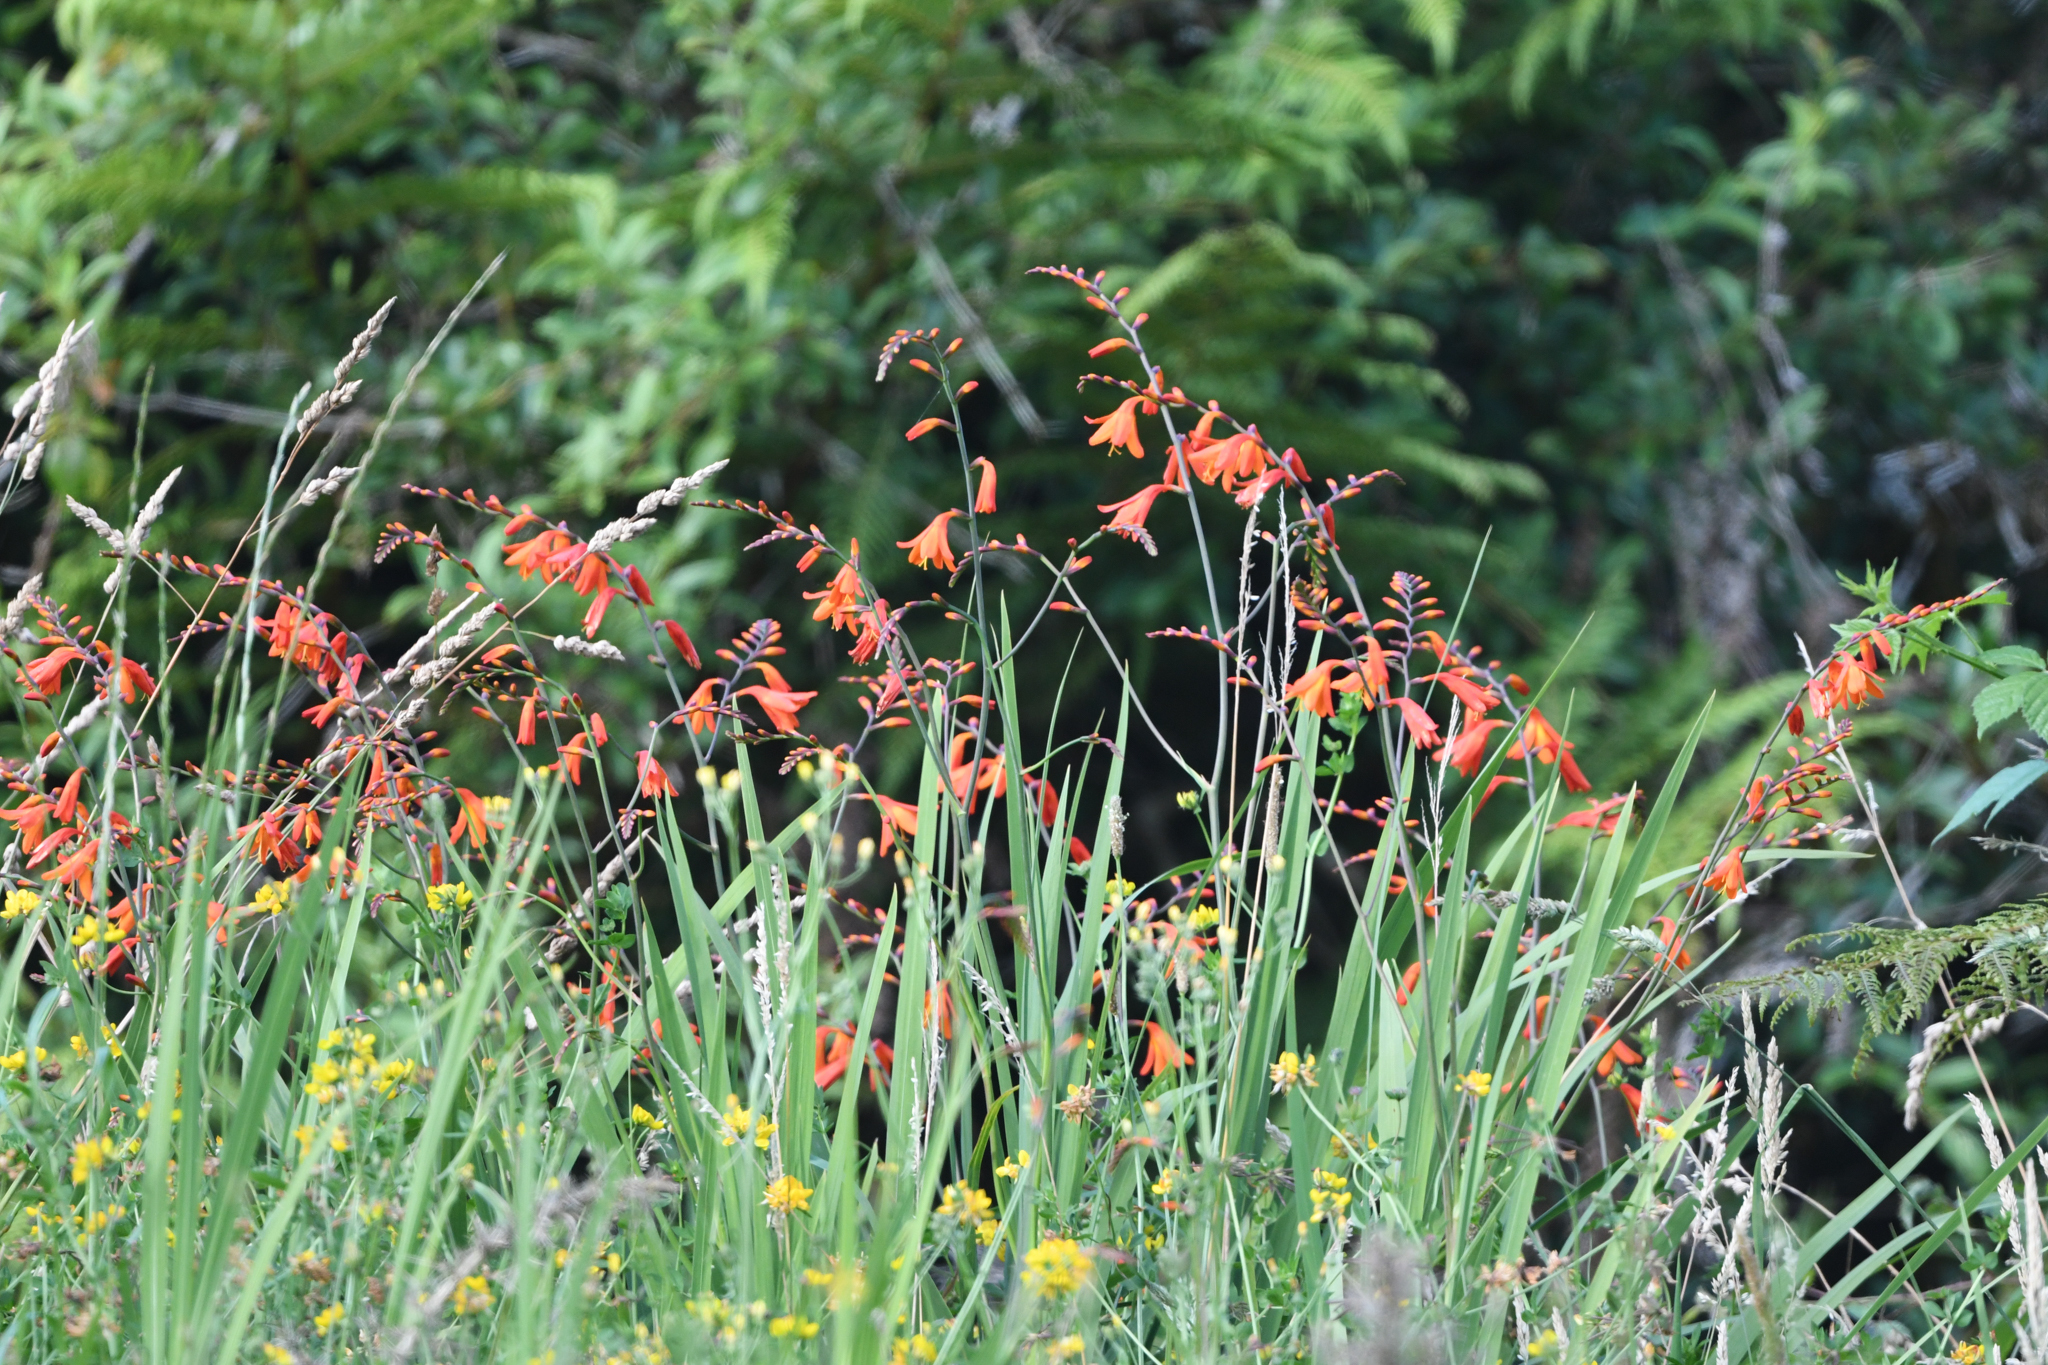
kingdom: Plantae
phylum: Tracheophyta
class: Liliopsida
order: Asparagales
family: Iridaceae
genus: Crocosmia
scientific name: Crocosmia crocosmiiflora
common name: Montbretia
